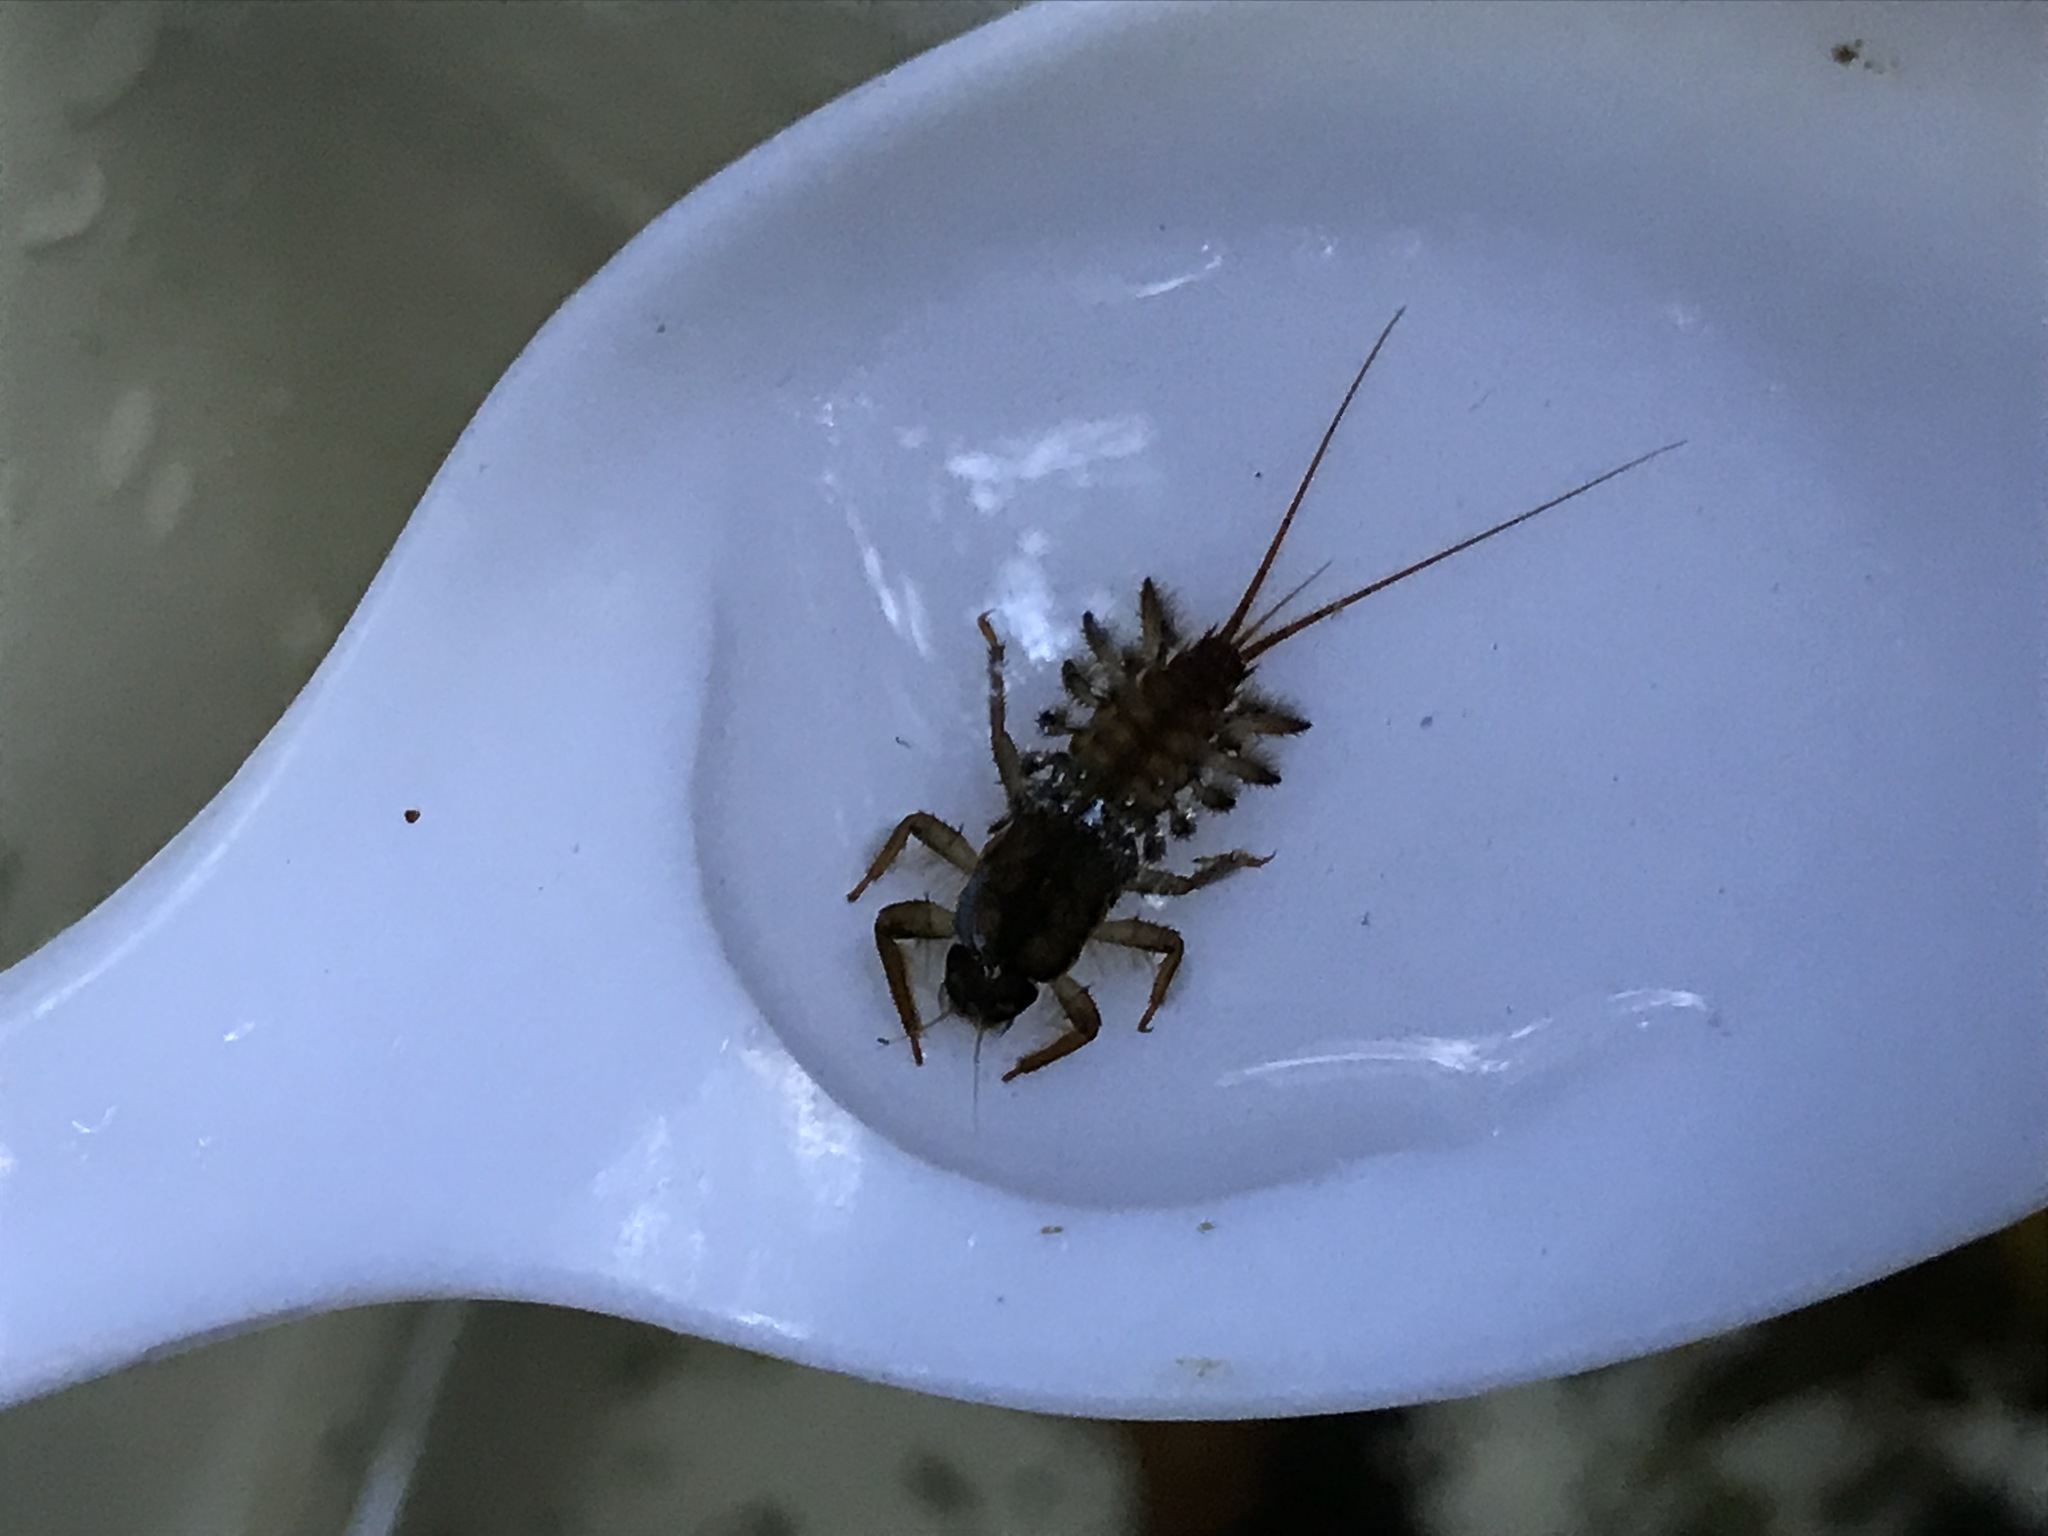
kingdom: Animalia
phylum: Arthropoda
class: Insecta
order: Ephemeroptera
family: Coloburiscidae
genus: Coloburiscus
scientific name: Coloburiscus humeralis
